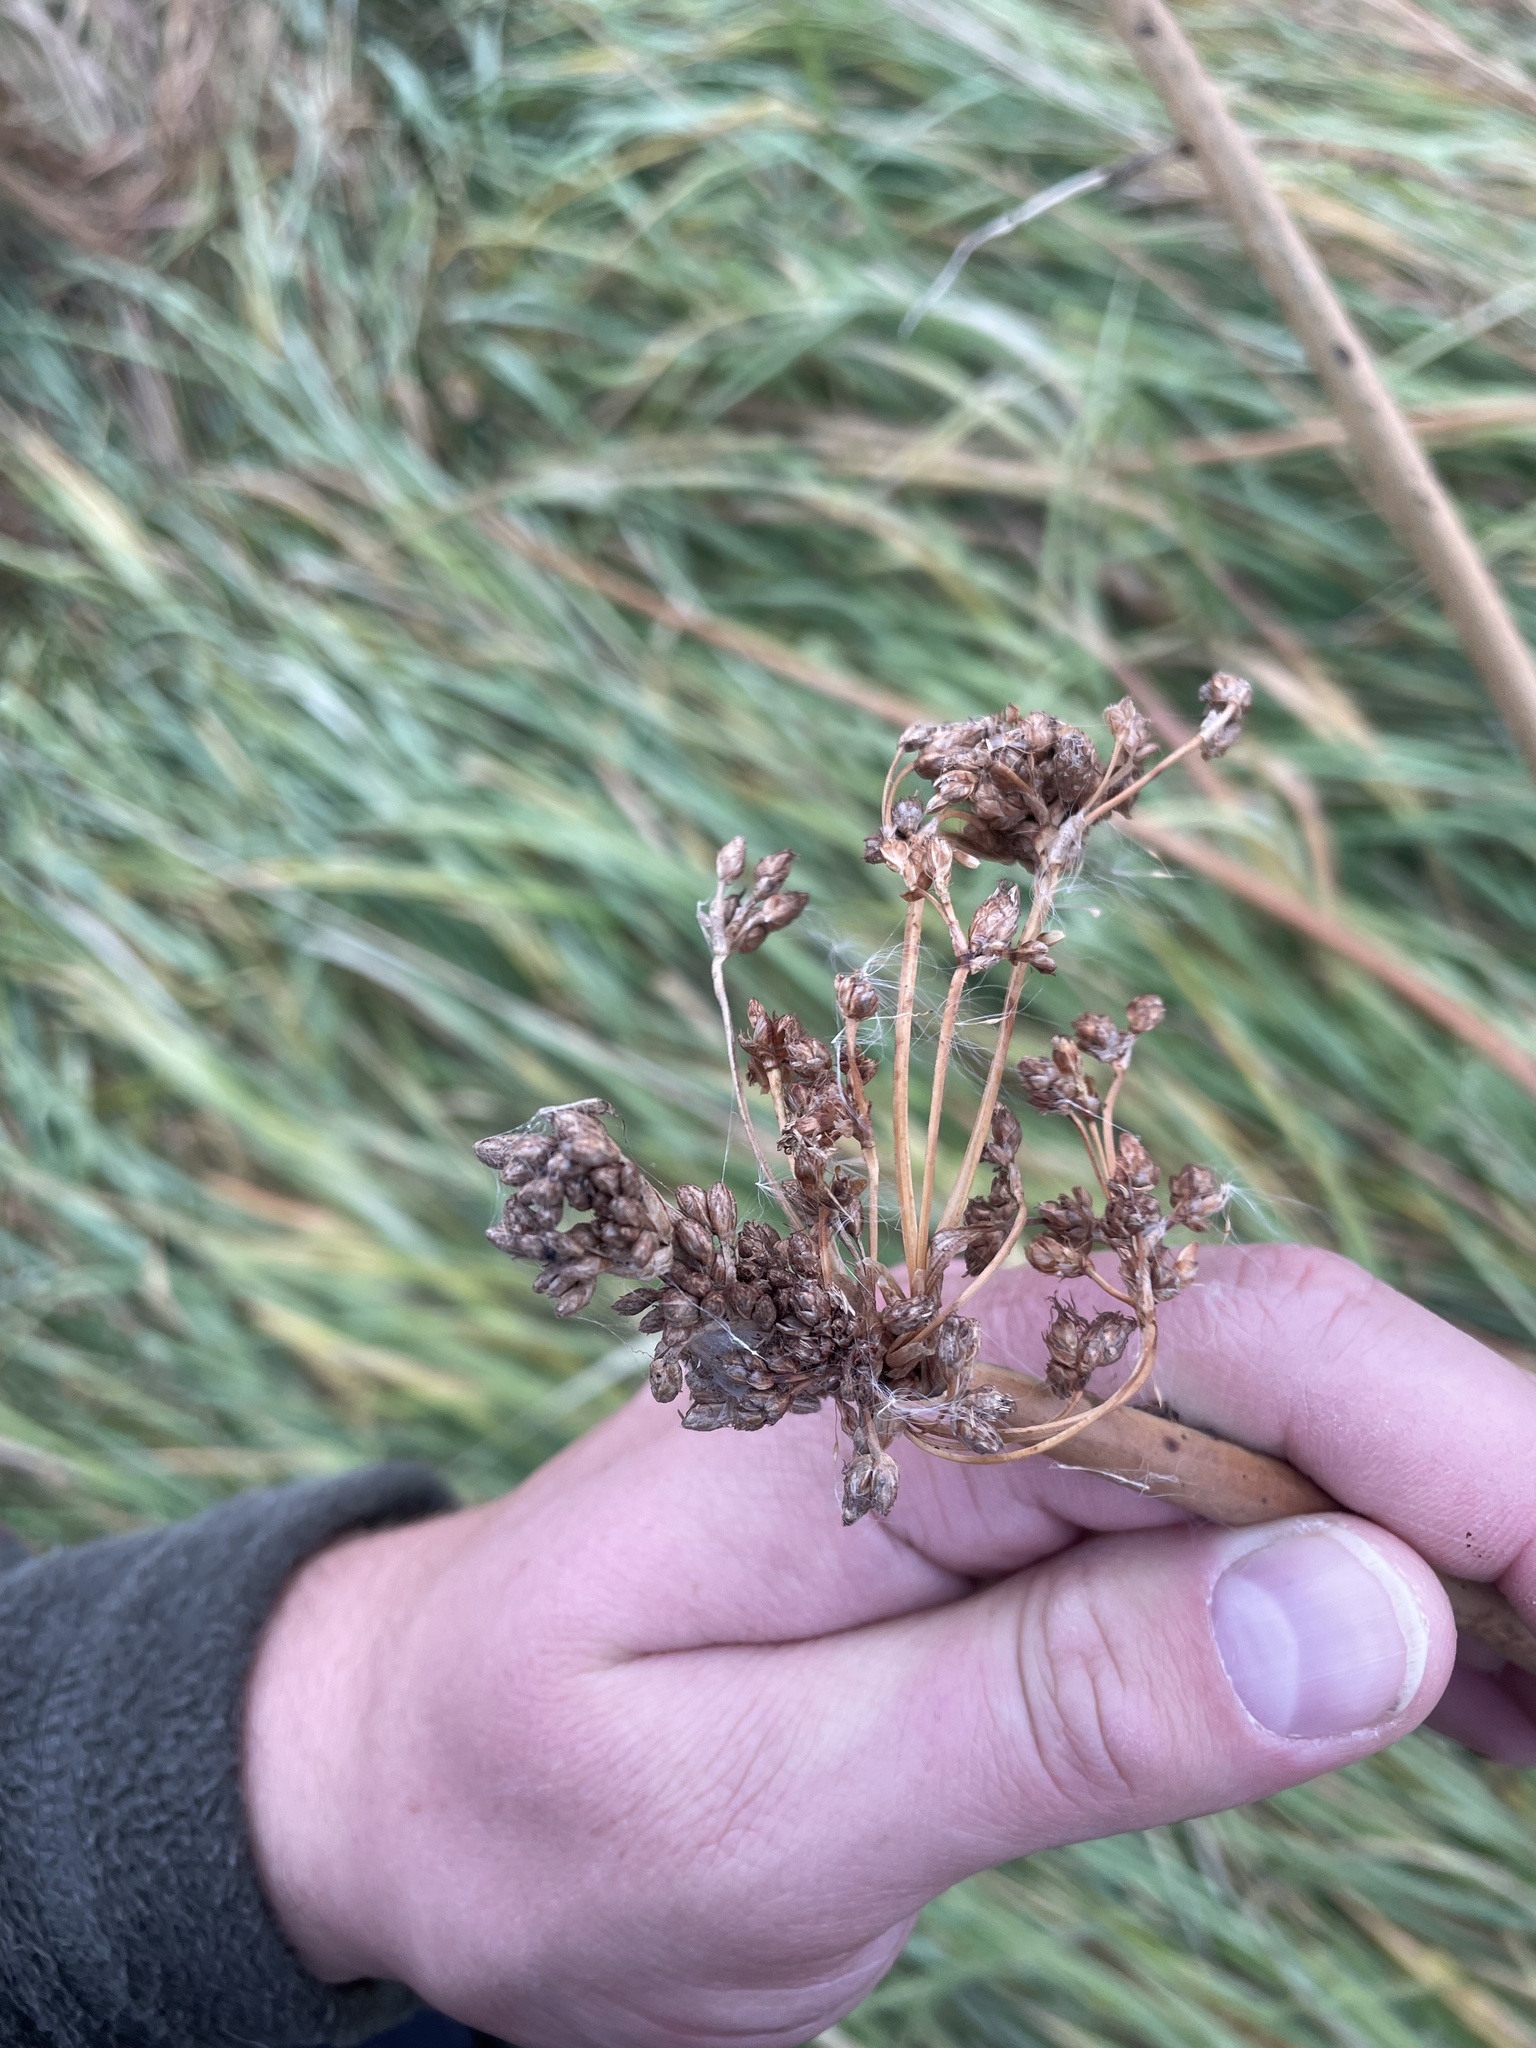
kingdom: Plantae
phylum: Tracheophyta
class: Liliopsida
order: Poales
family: Cyperaceae
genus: Schoenoplectus
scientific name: Schoenoplectus tabernaemontani
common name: Grey club-rush
